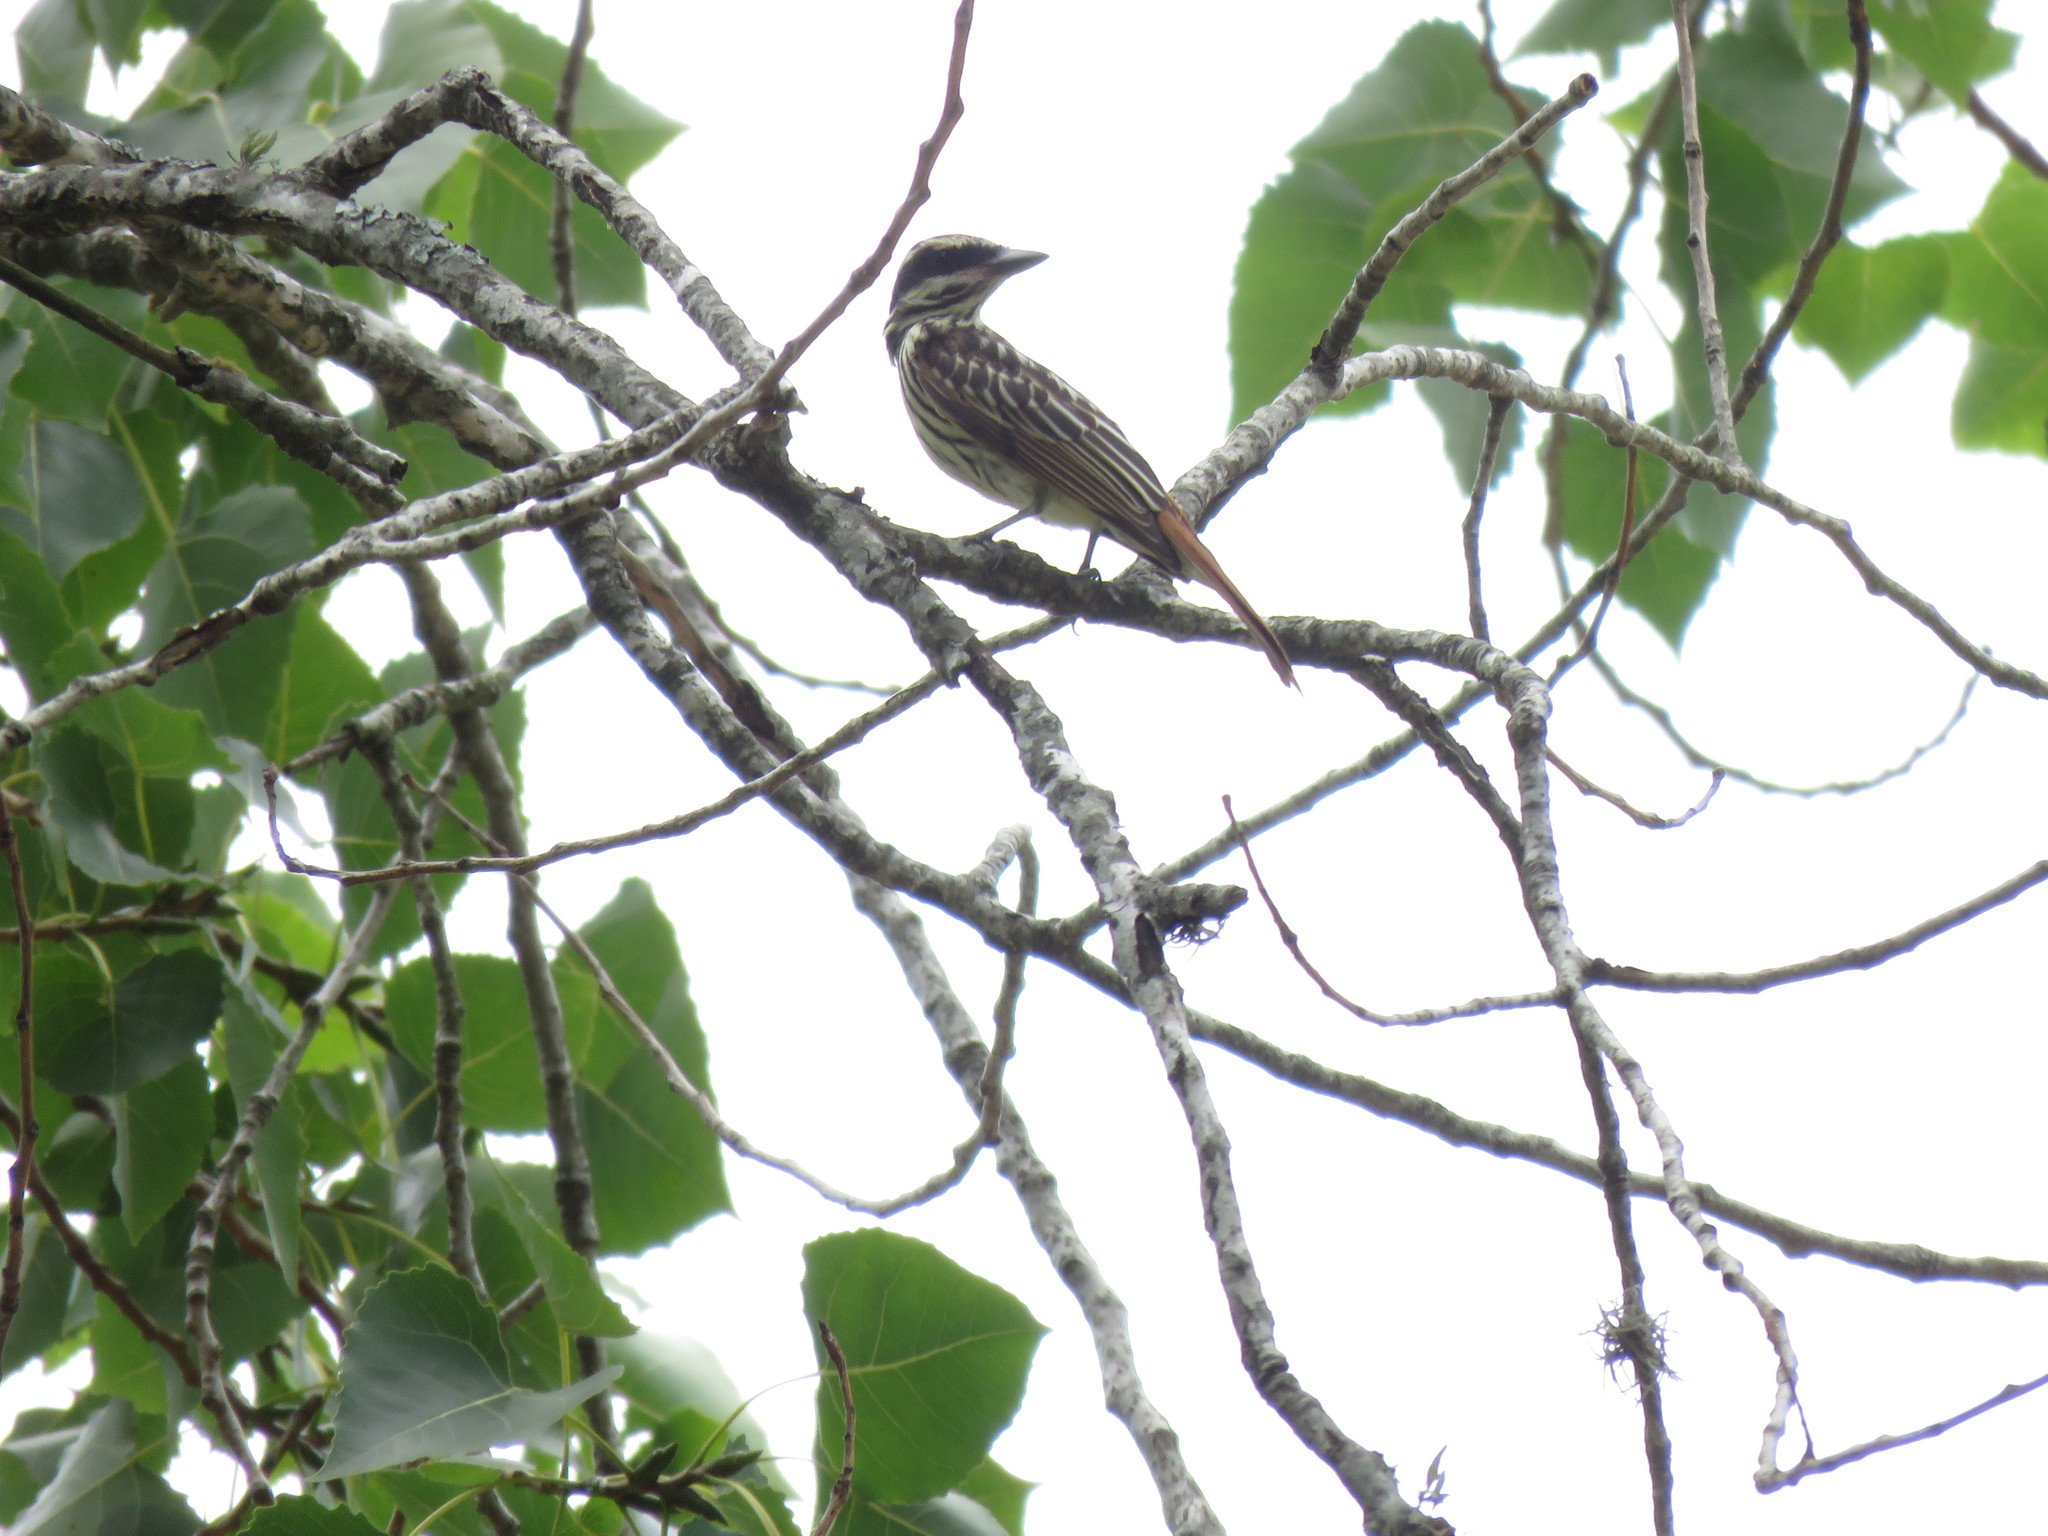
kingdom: Animalia
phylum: Chordata
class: Aves
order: Passeriformes
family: Tyrannidae
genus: Myiodynastes
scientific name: Myiodynastes maculatus
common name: Streaked flycatcher
